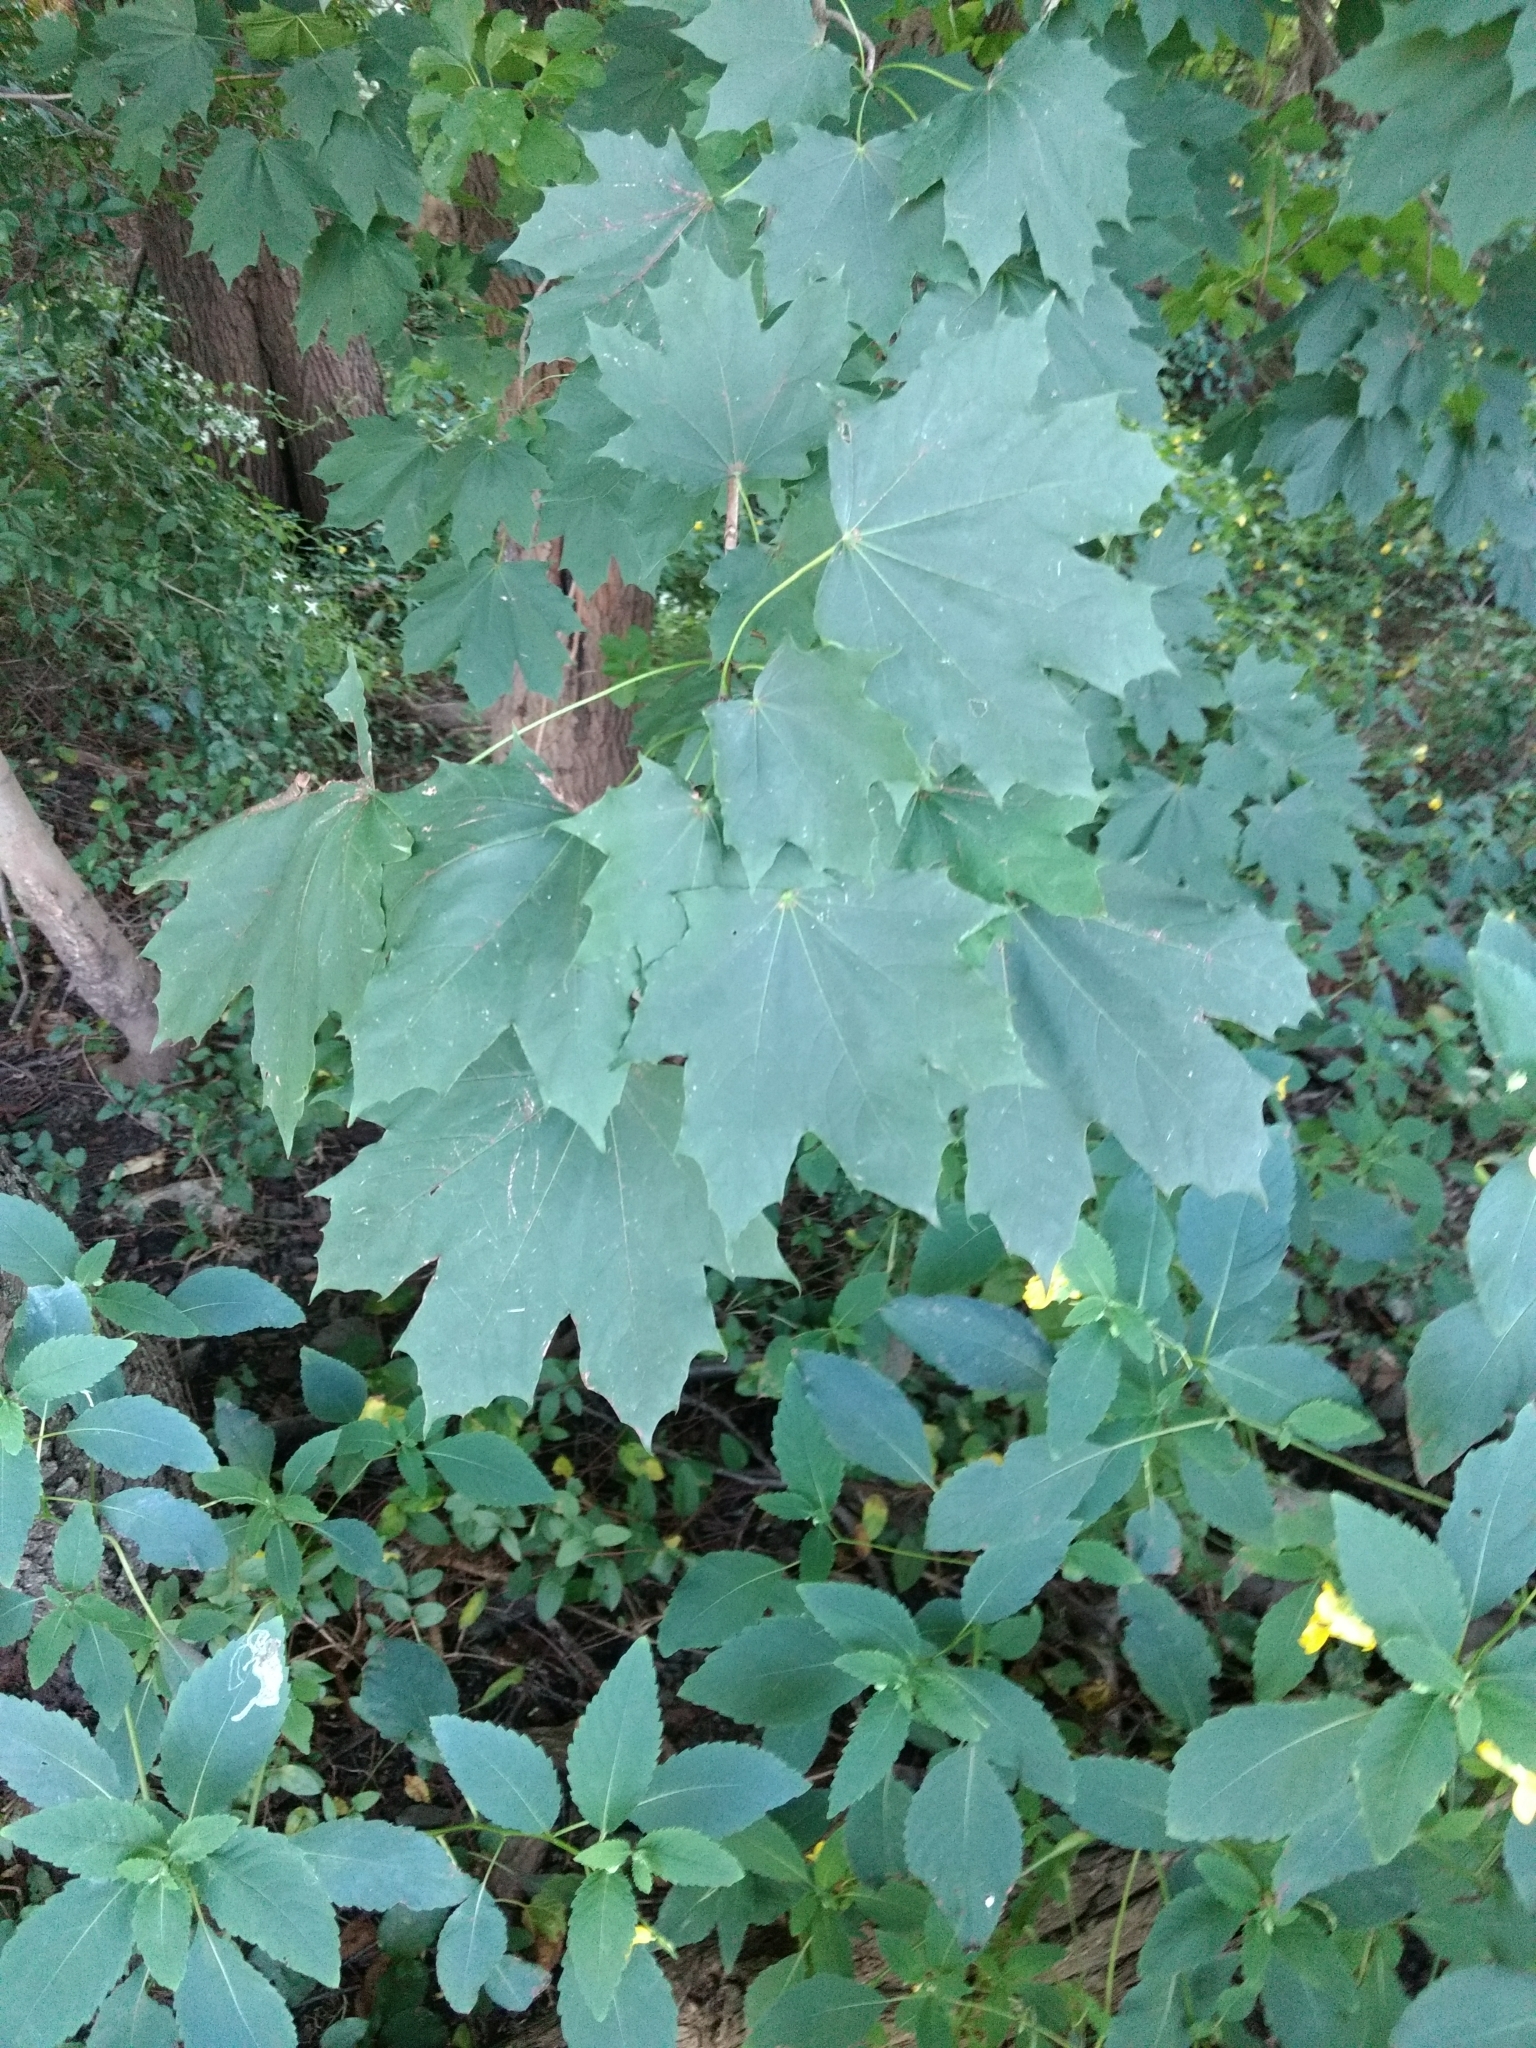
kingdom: Plantae
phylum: Tracheophyta
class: Magnoliopsida
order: Sapindales
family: Sapindaceae
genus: Acer
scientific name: Acer platanoides
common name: Norway maple
